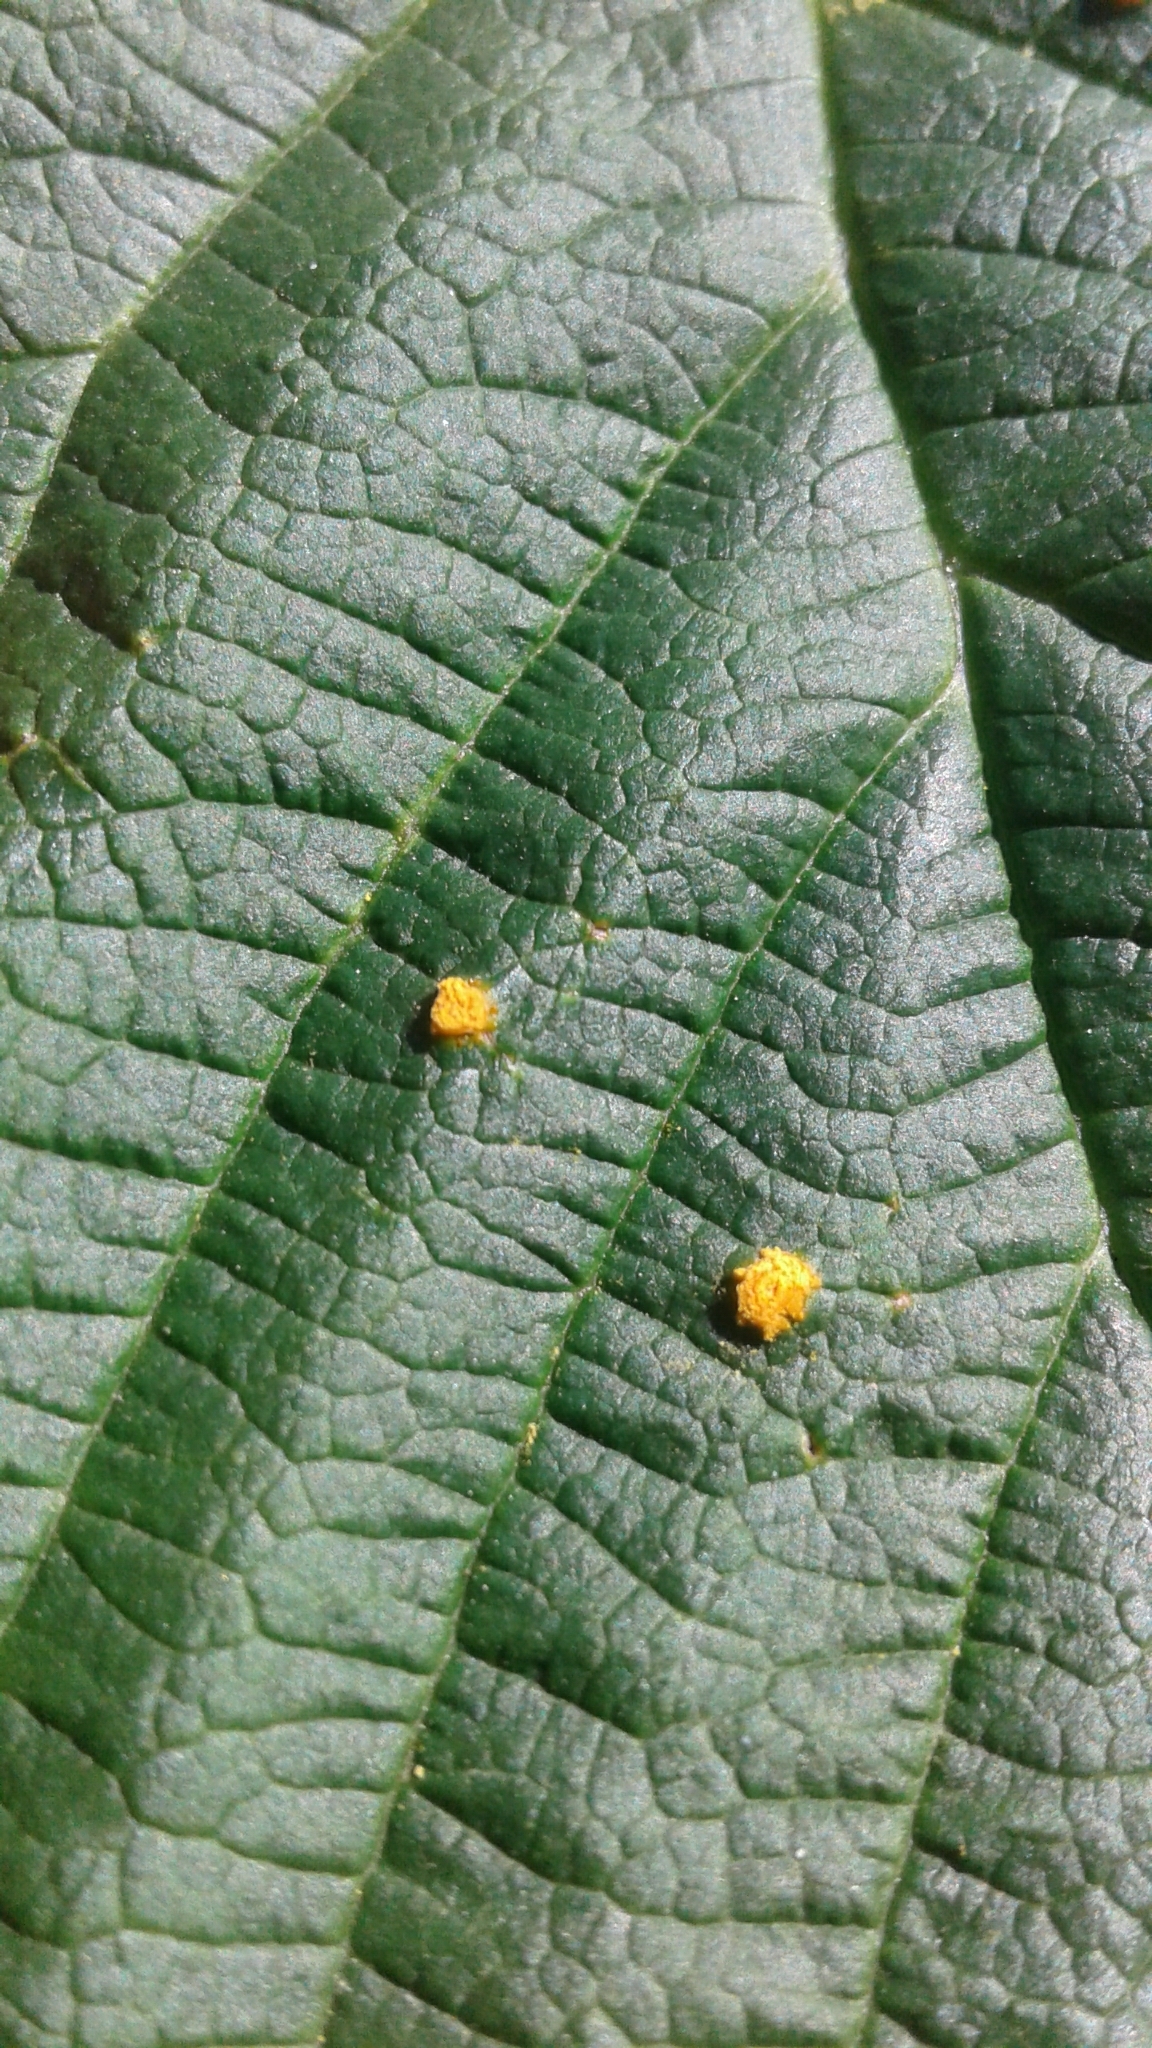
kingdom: Fungi
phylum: Basidiomycota
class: Pucciniomycetes
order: Pucciniales
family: Phragmidiaceae
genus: Phragmidium
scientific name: Phragmidium rubi-idaei
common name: Raspberry rust
